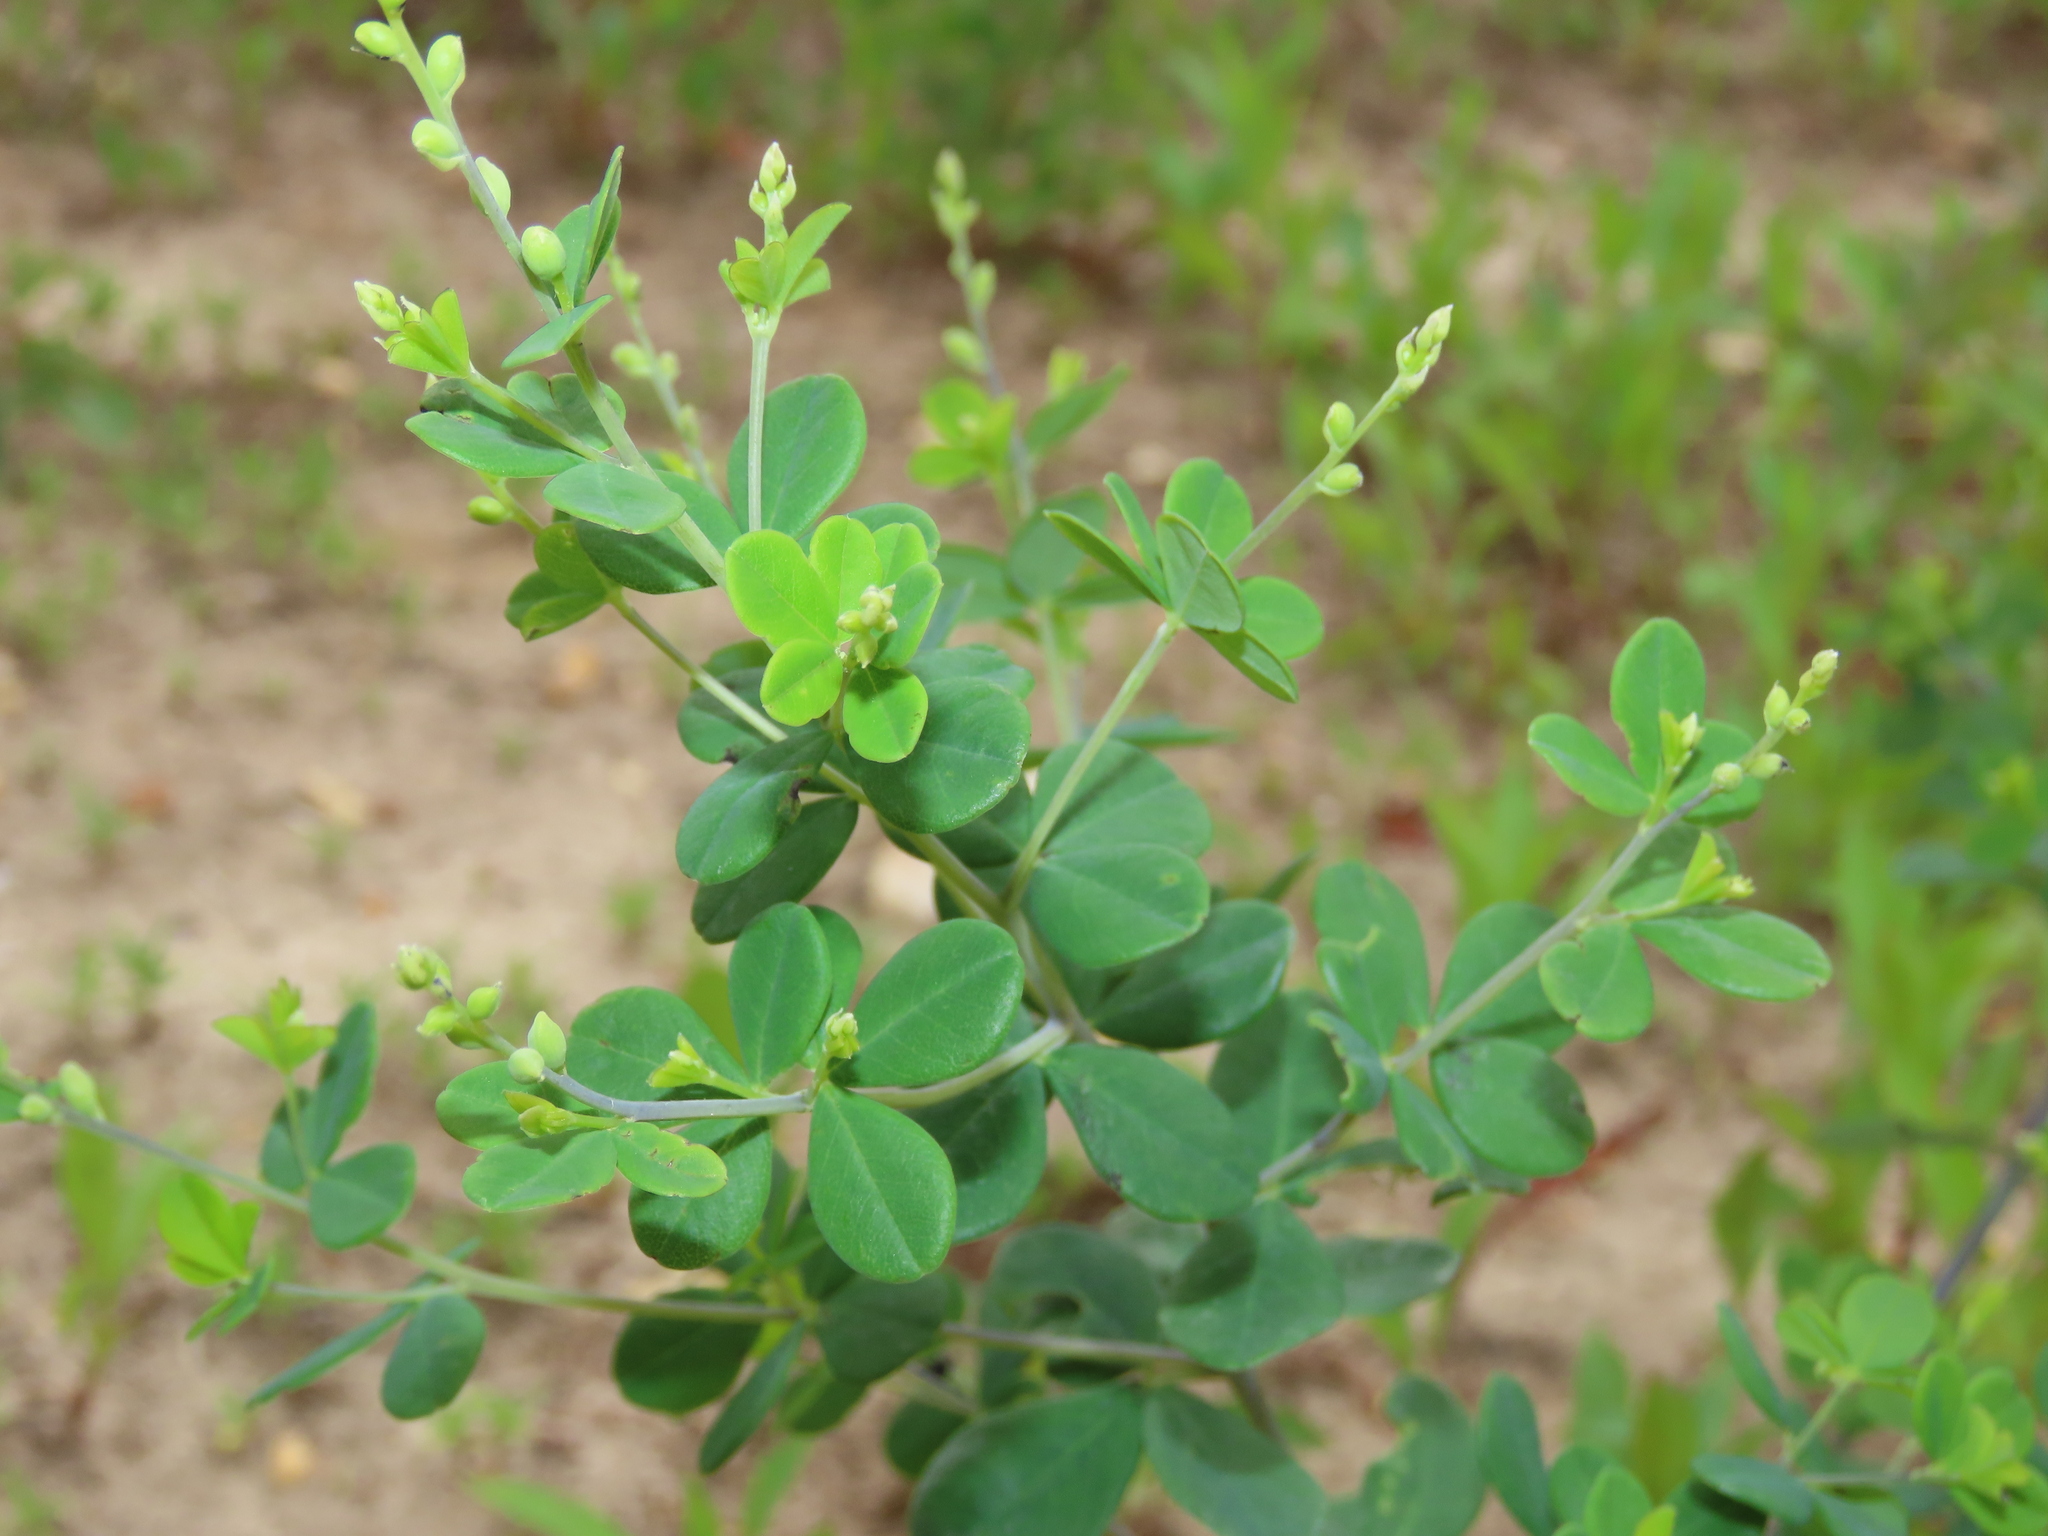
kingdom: Plantae
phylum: Tracheophyta
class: Magnoliopsida
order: Fabales
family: Fabaceae
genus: Baptisia
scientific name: Baptisia tinctoria
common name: Wild indigo
